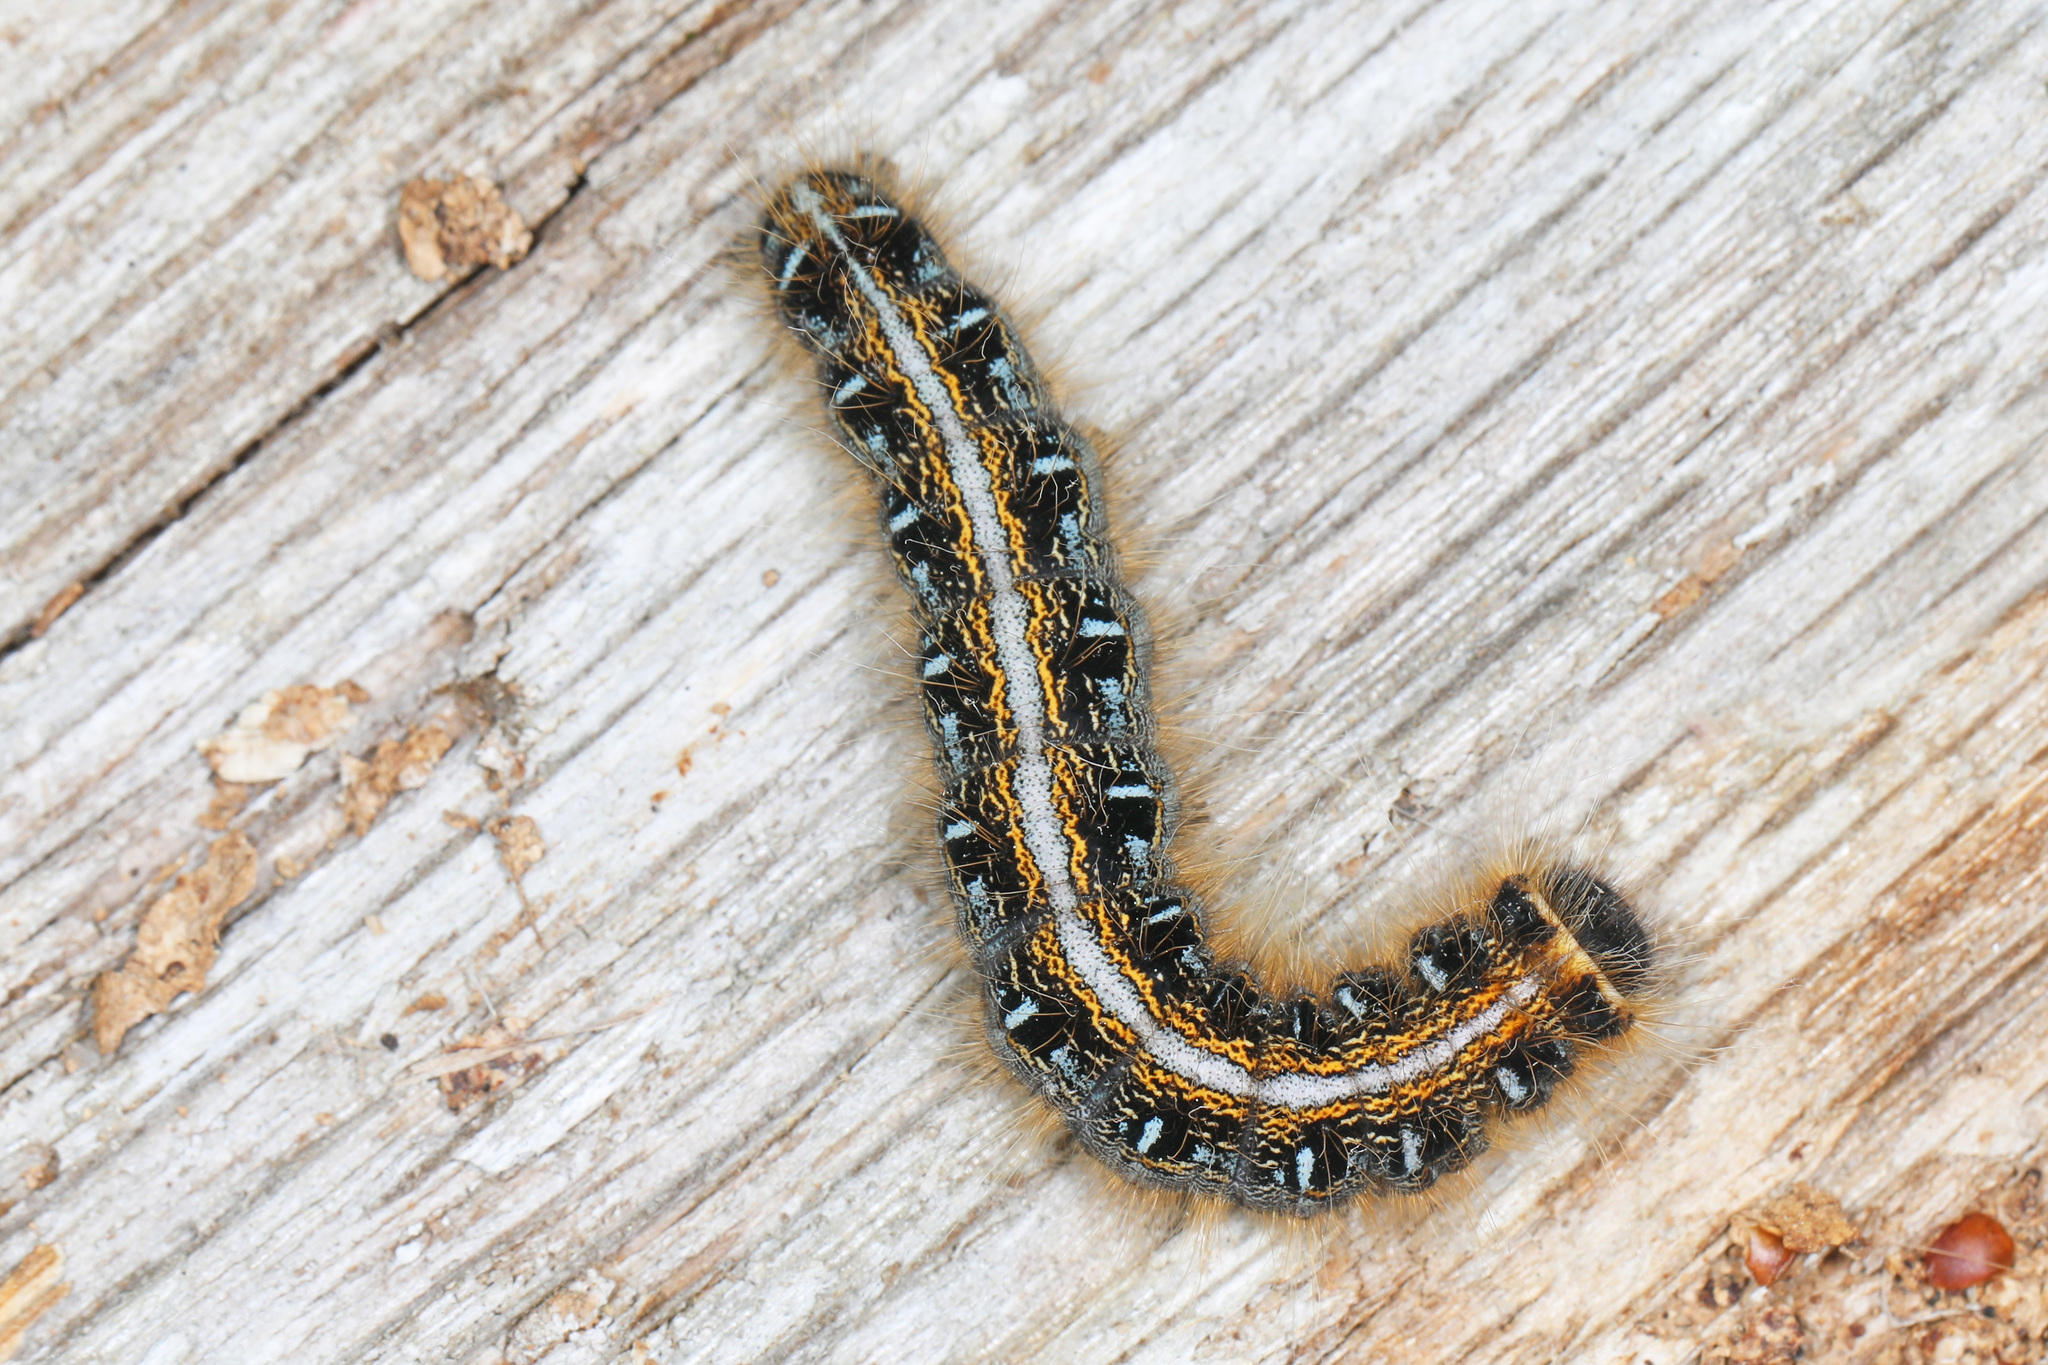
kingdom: Animalia
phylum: Arthropoda
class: Insecta
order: Lepidoptera
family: Lasiocampidae
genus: Malacosoma
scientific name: Malacosoma americana
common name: Eastern tent caterpillar moth
